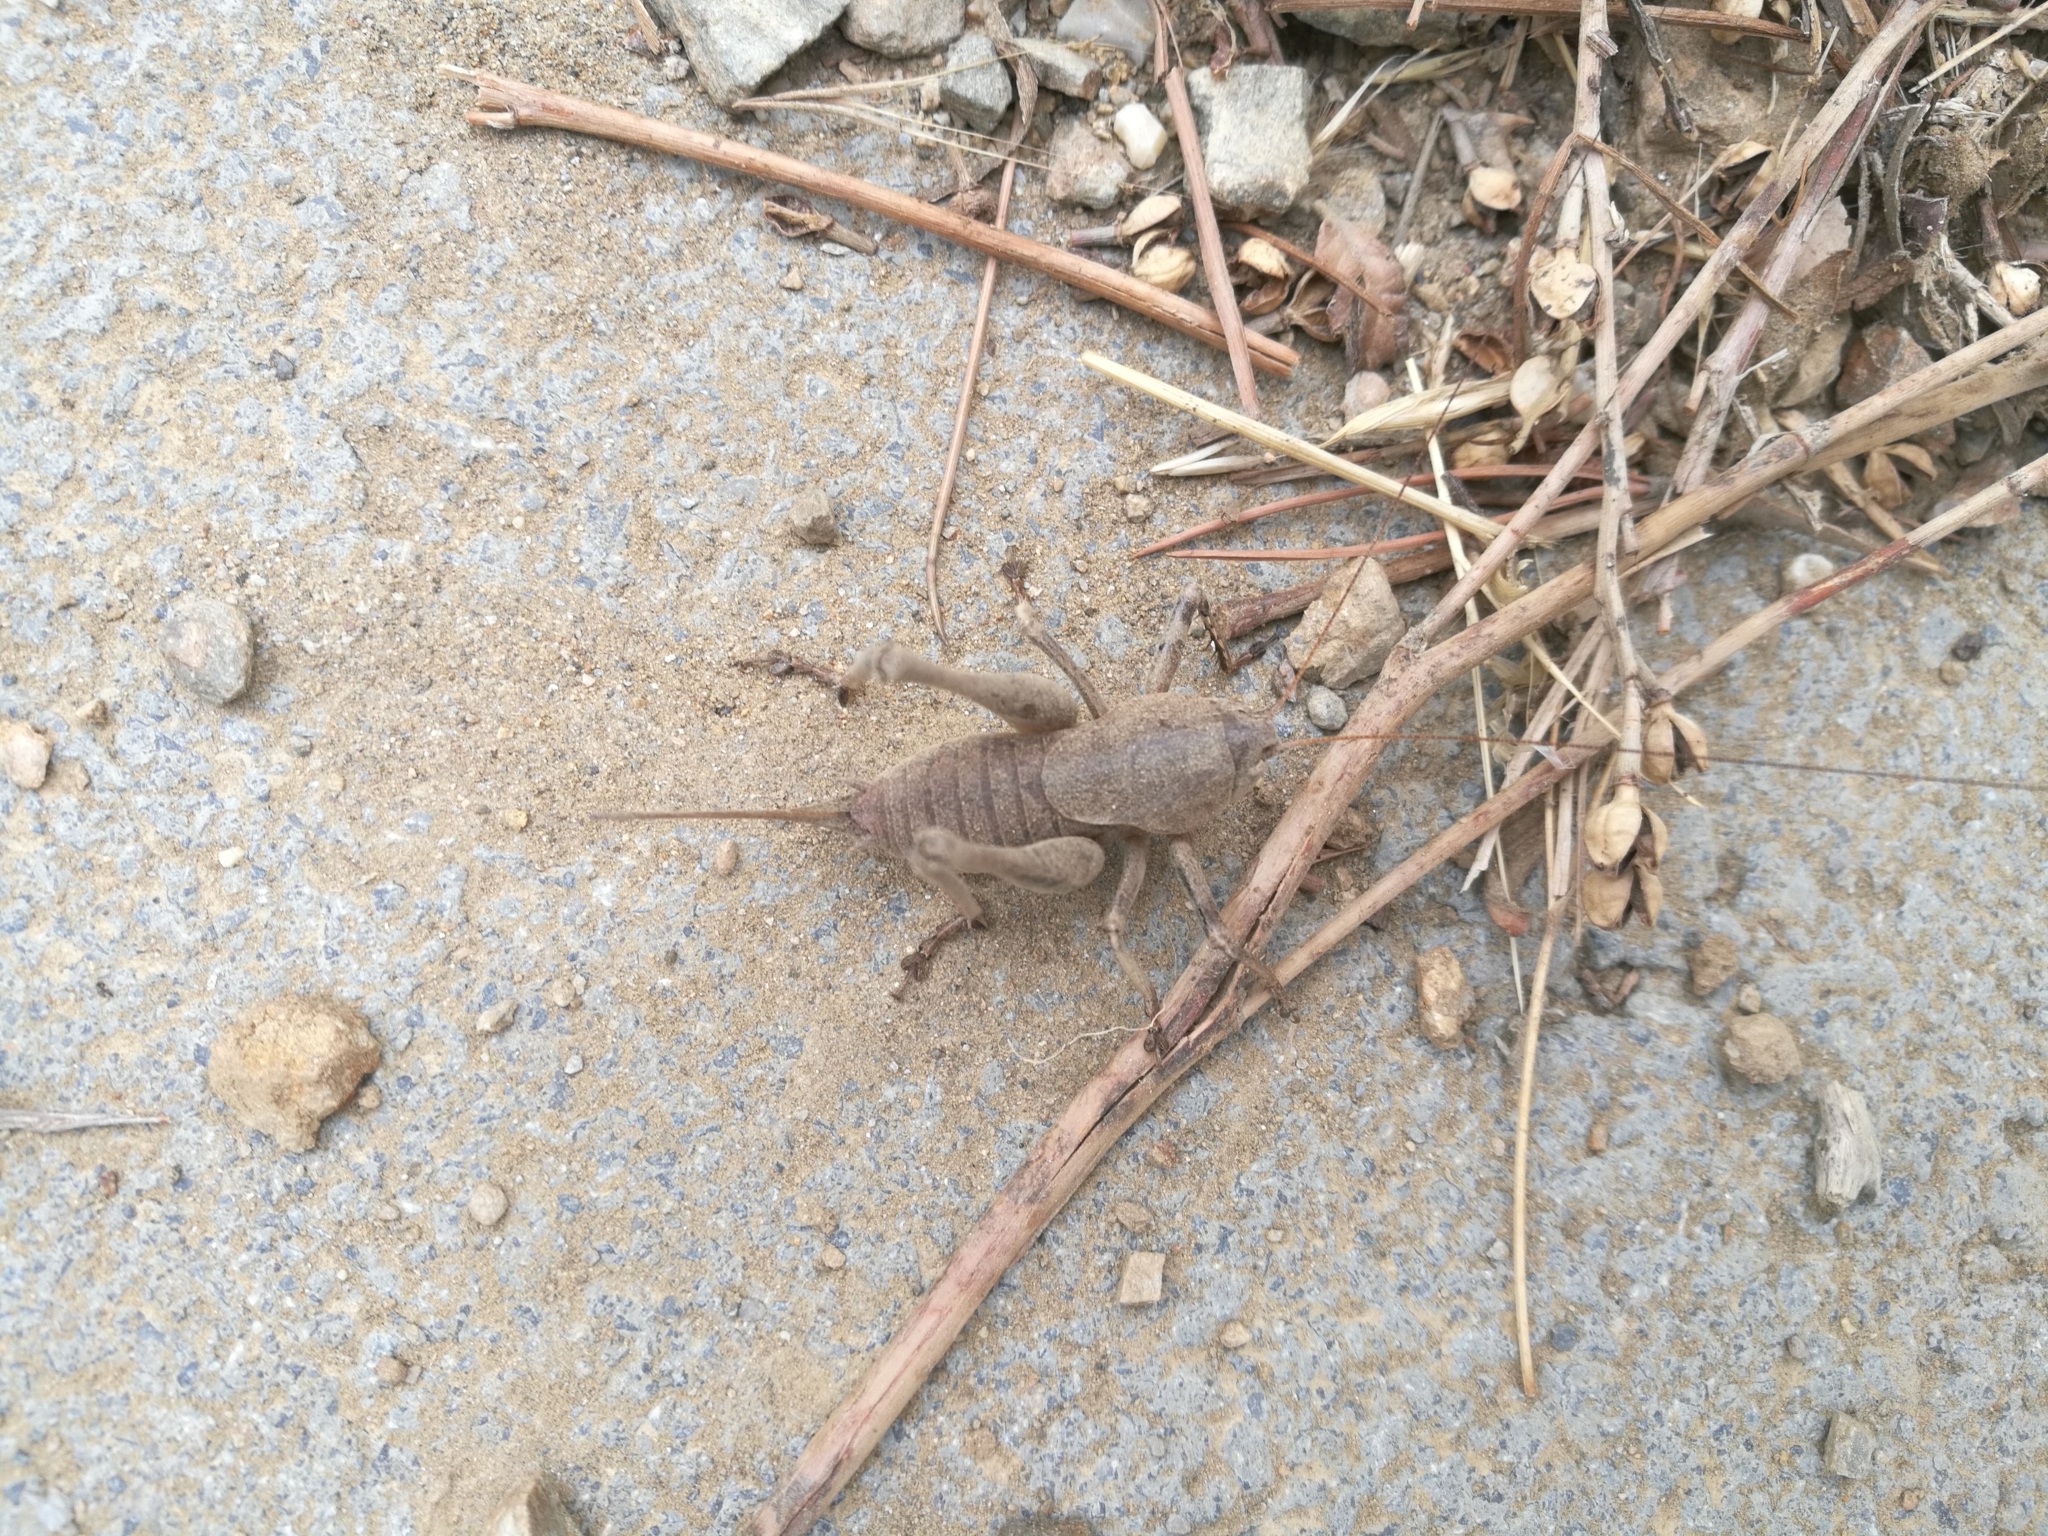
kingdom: Animalia
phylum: Arthropoda
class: Insecta
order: Orthoptera
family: Tettigoniidae
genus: Thyreonotus
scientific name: Thyreonotus corsicus
